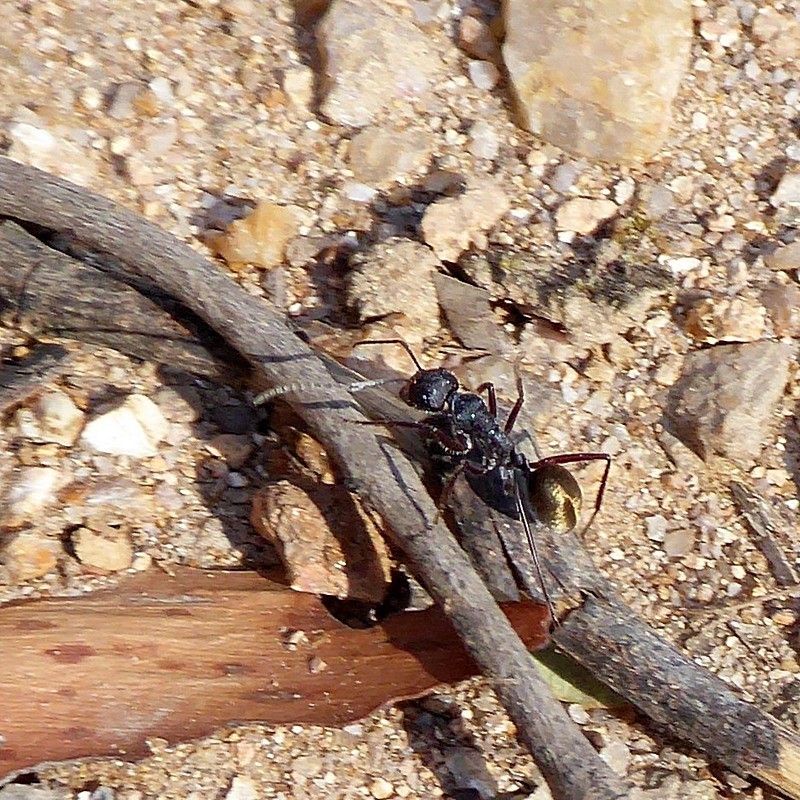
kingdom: Animalia
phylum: Arthropoda
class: Insecta
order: Hymenoptera
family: Formicidae
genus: Camponotus
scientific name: Camponotus suffusus
